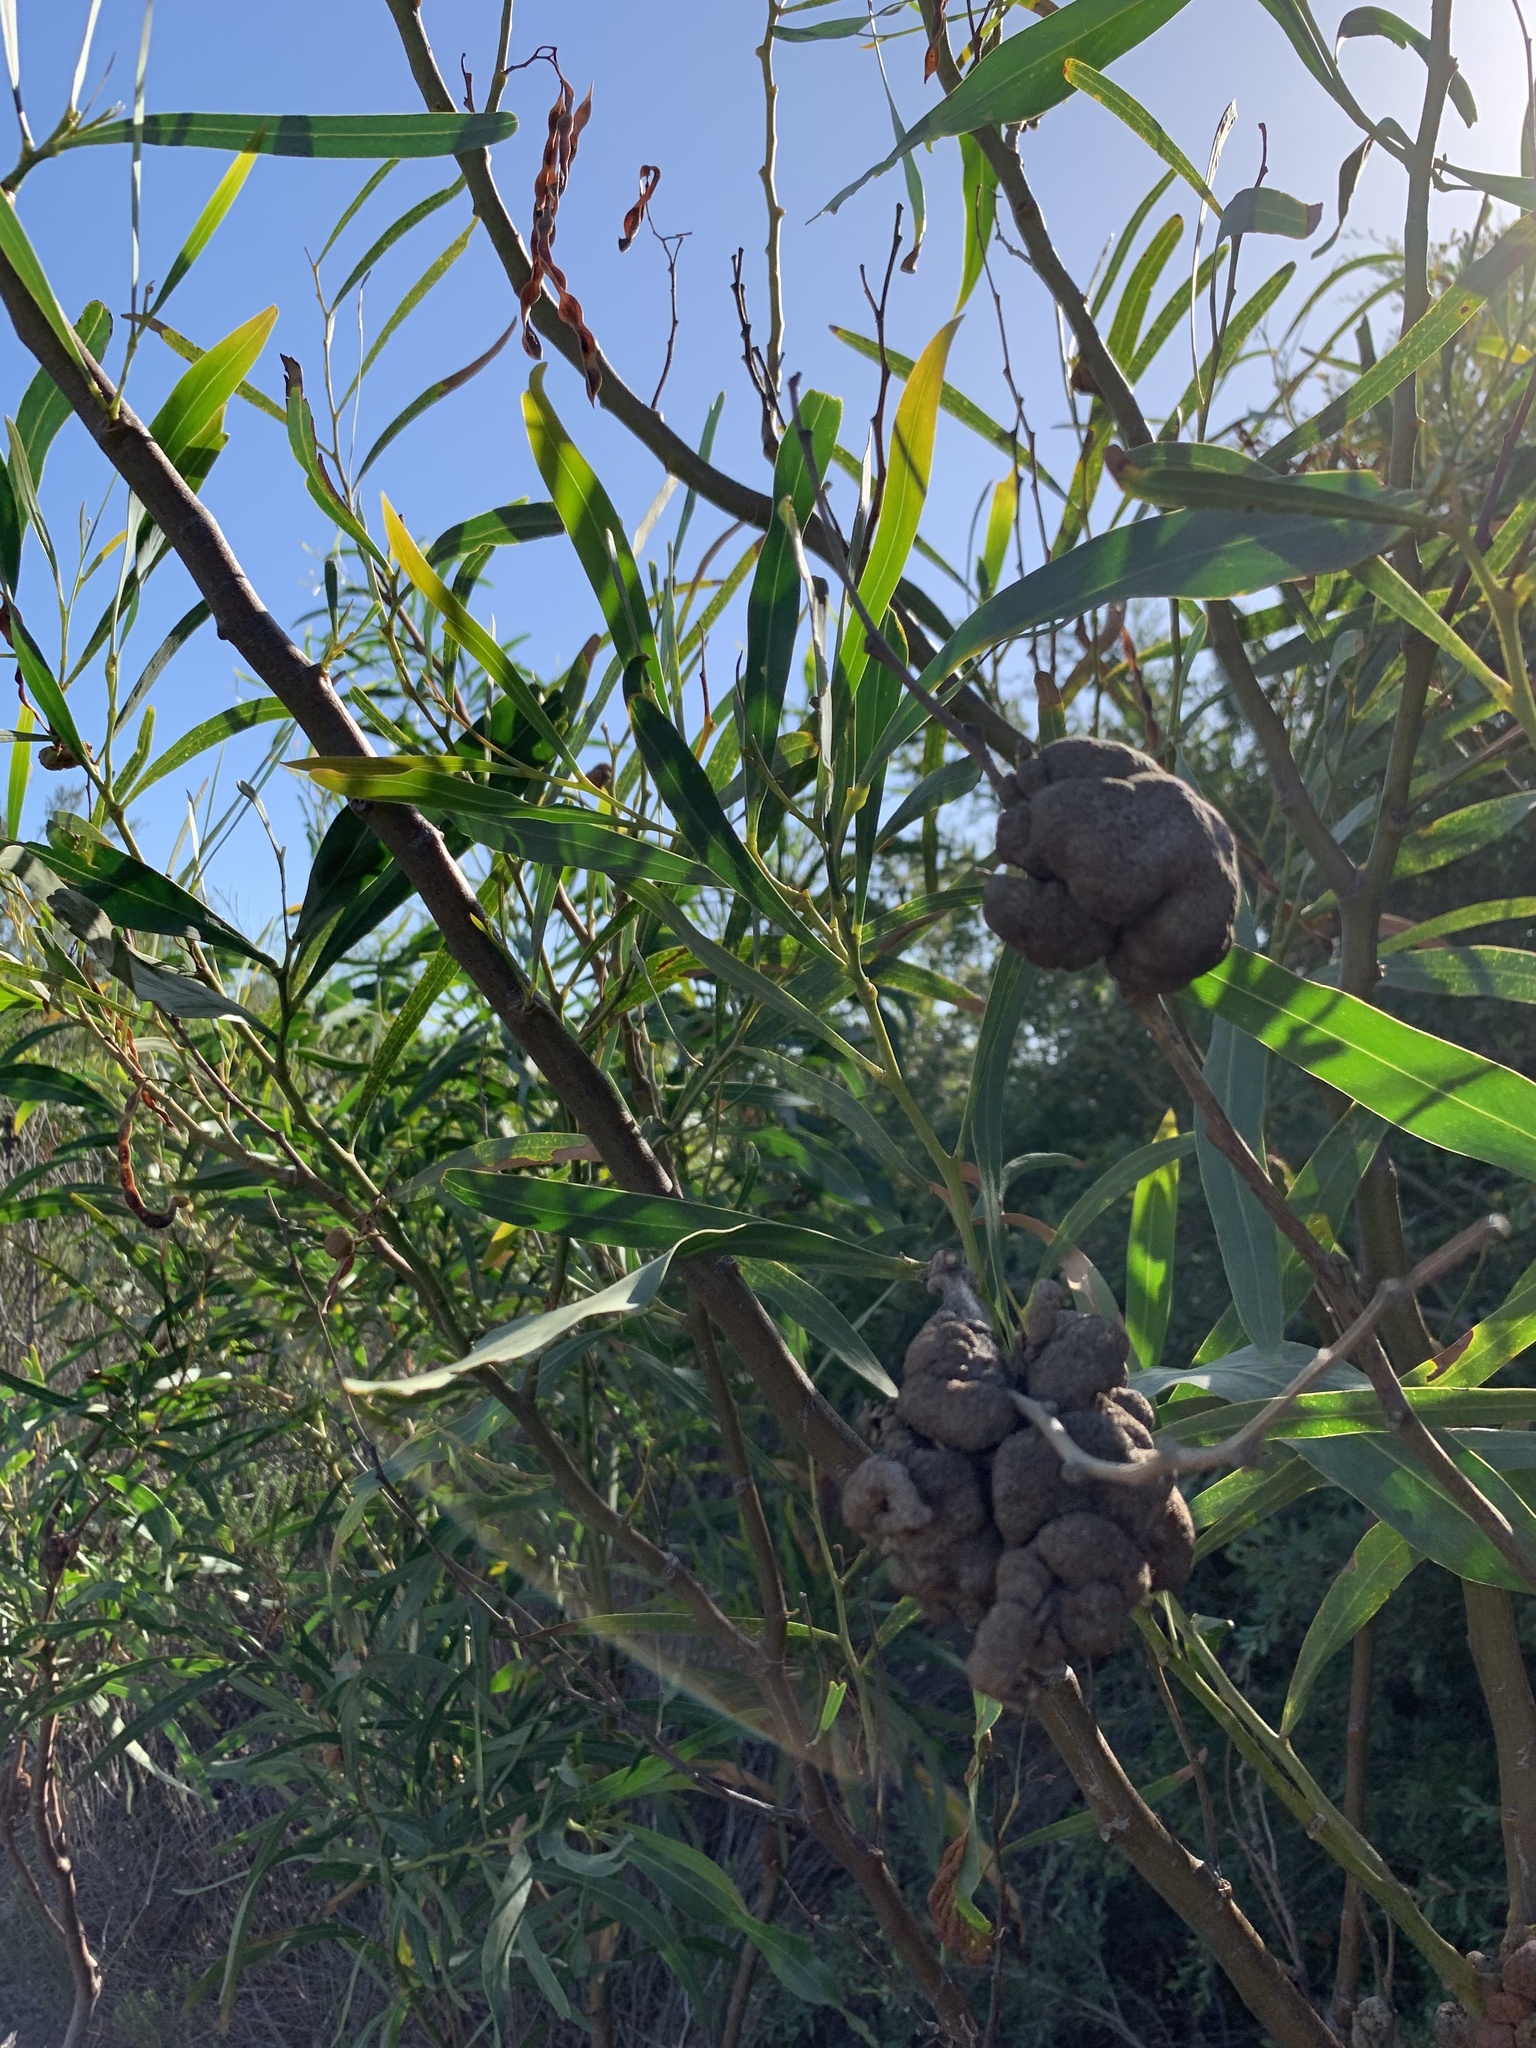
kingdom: Plantae
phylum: Tracheophyta
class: Magnoliopsida
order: Fabales
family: Fabaceae
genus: Acacia
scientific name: Acacia saligna
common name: Orange wattle
